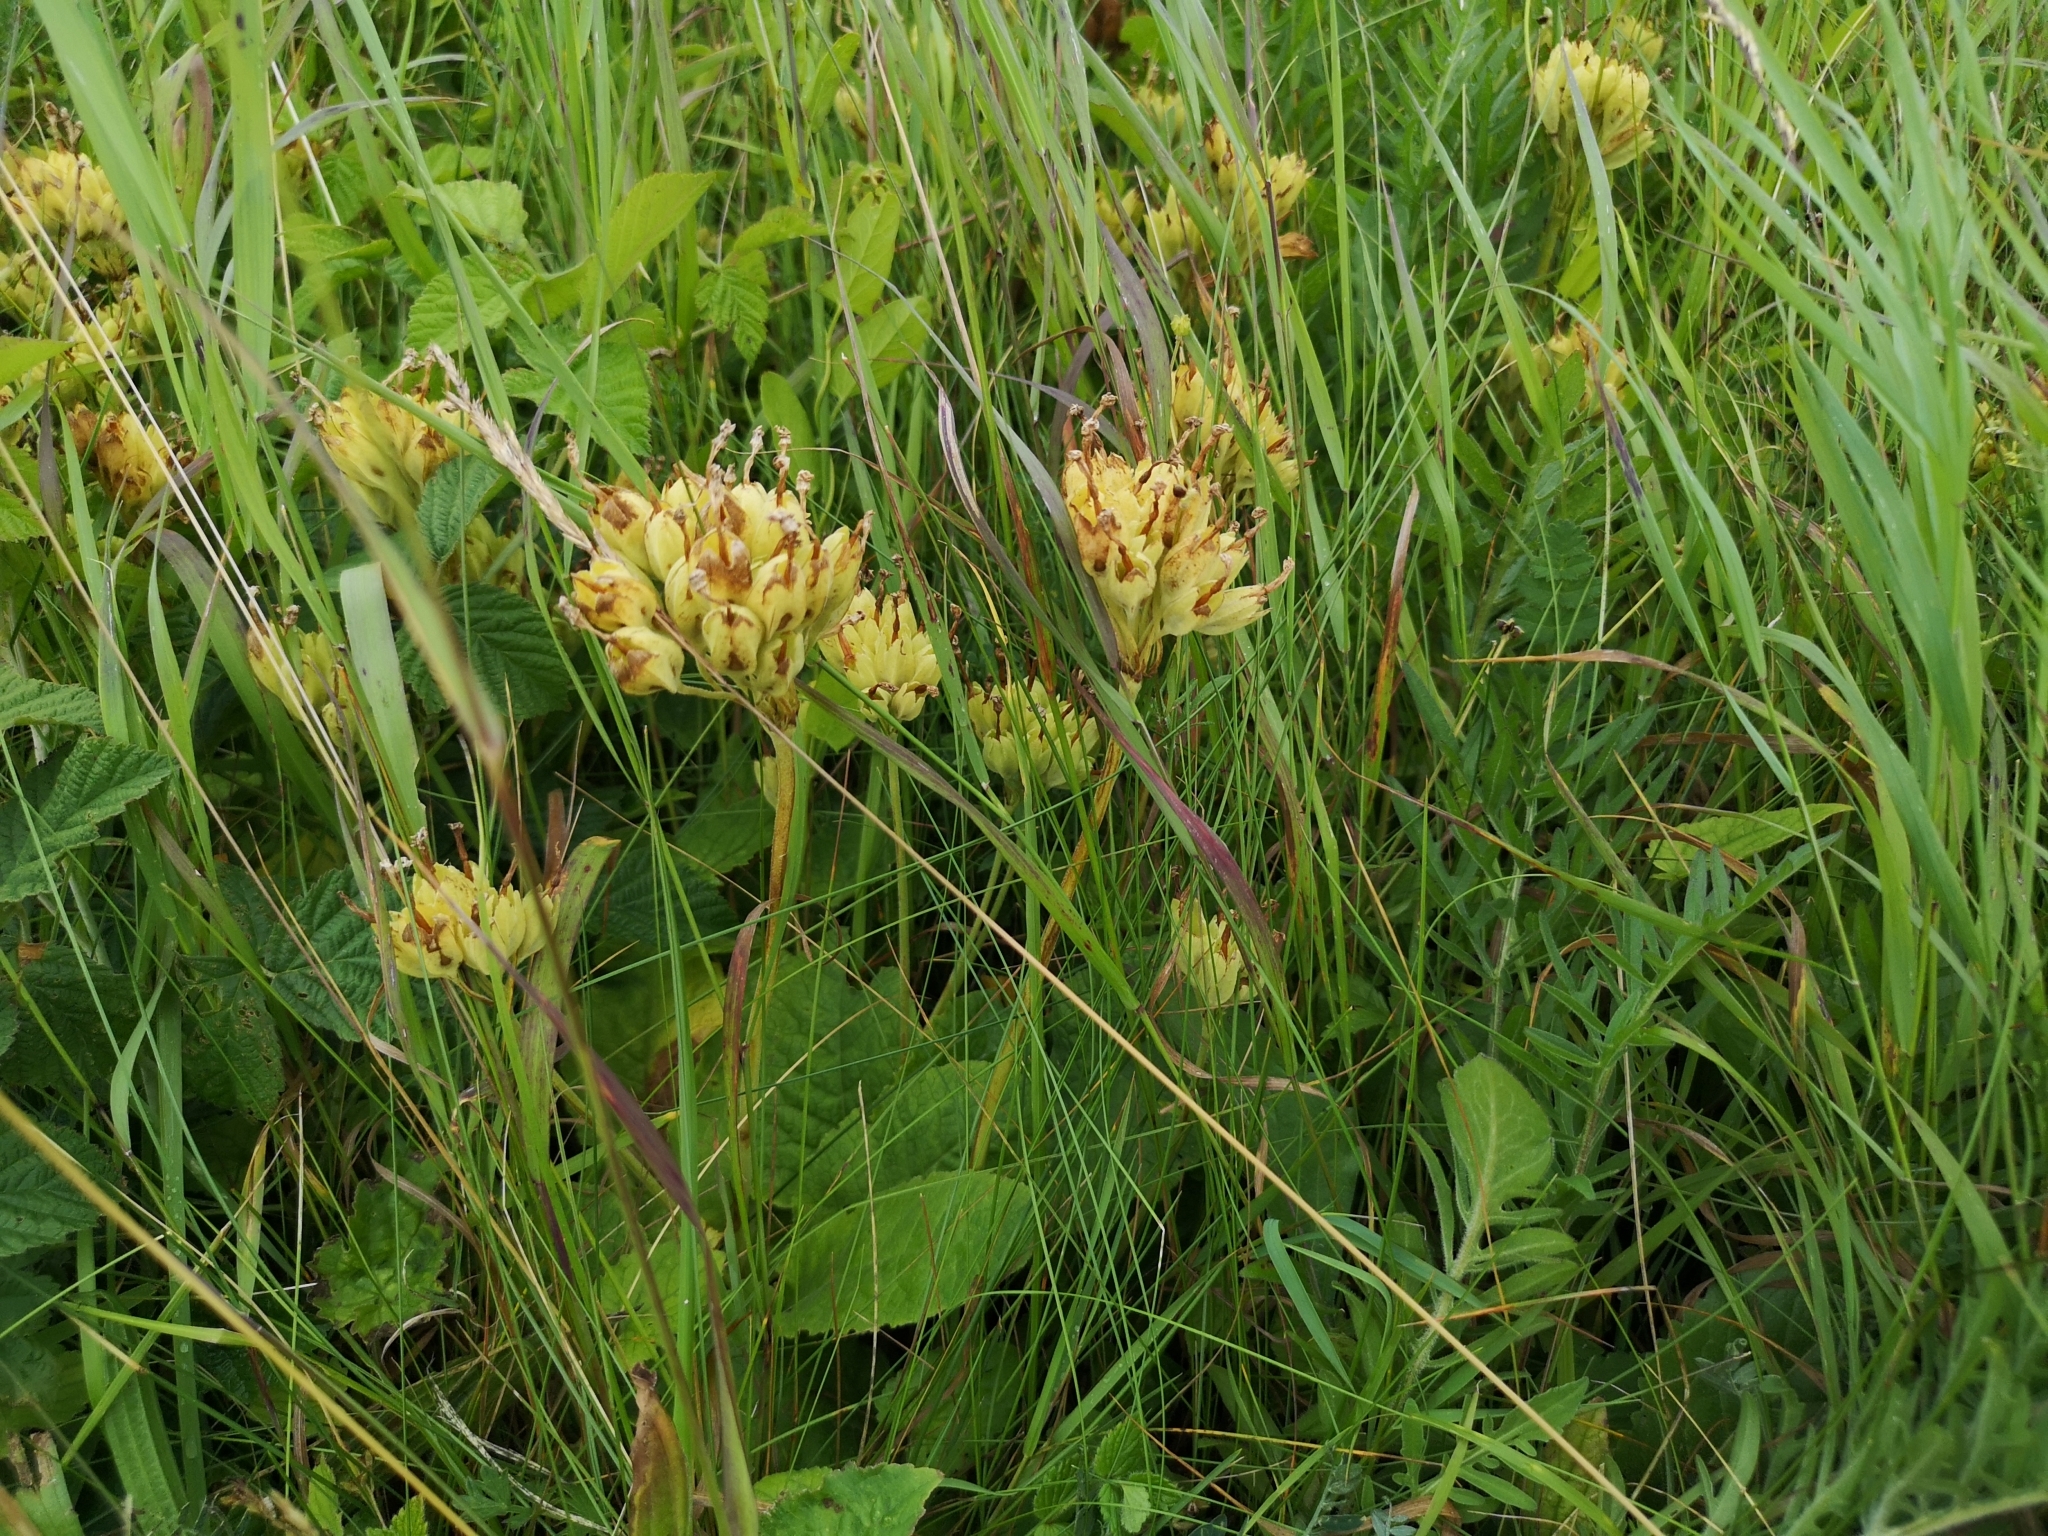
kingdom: Plantae
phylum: Tracheophyta
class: Magnoliopsida
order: Ericales
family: Primulaceae
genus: Primula
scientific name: Primula veris
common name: Cowslip
